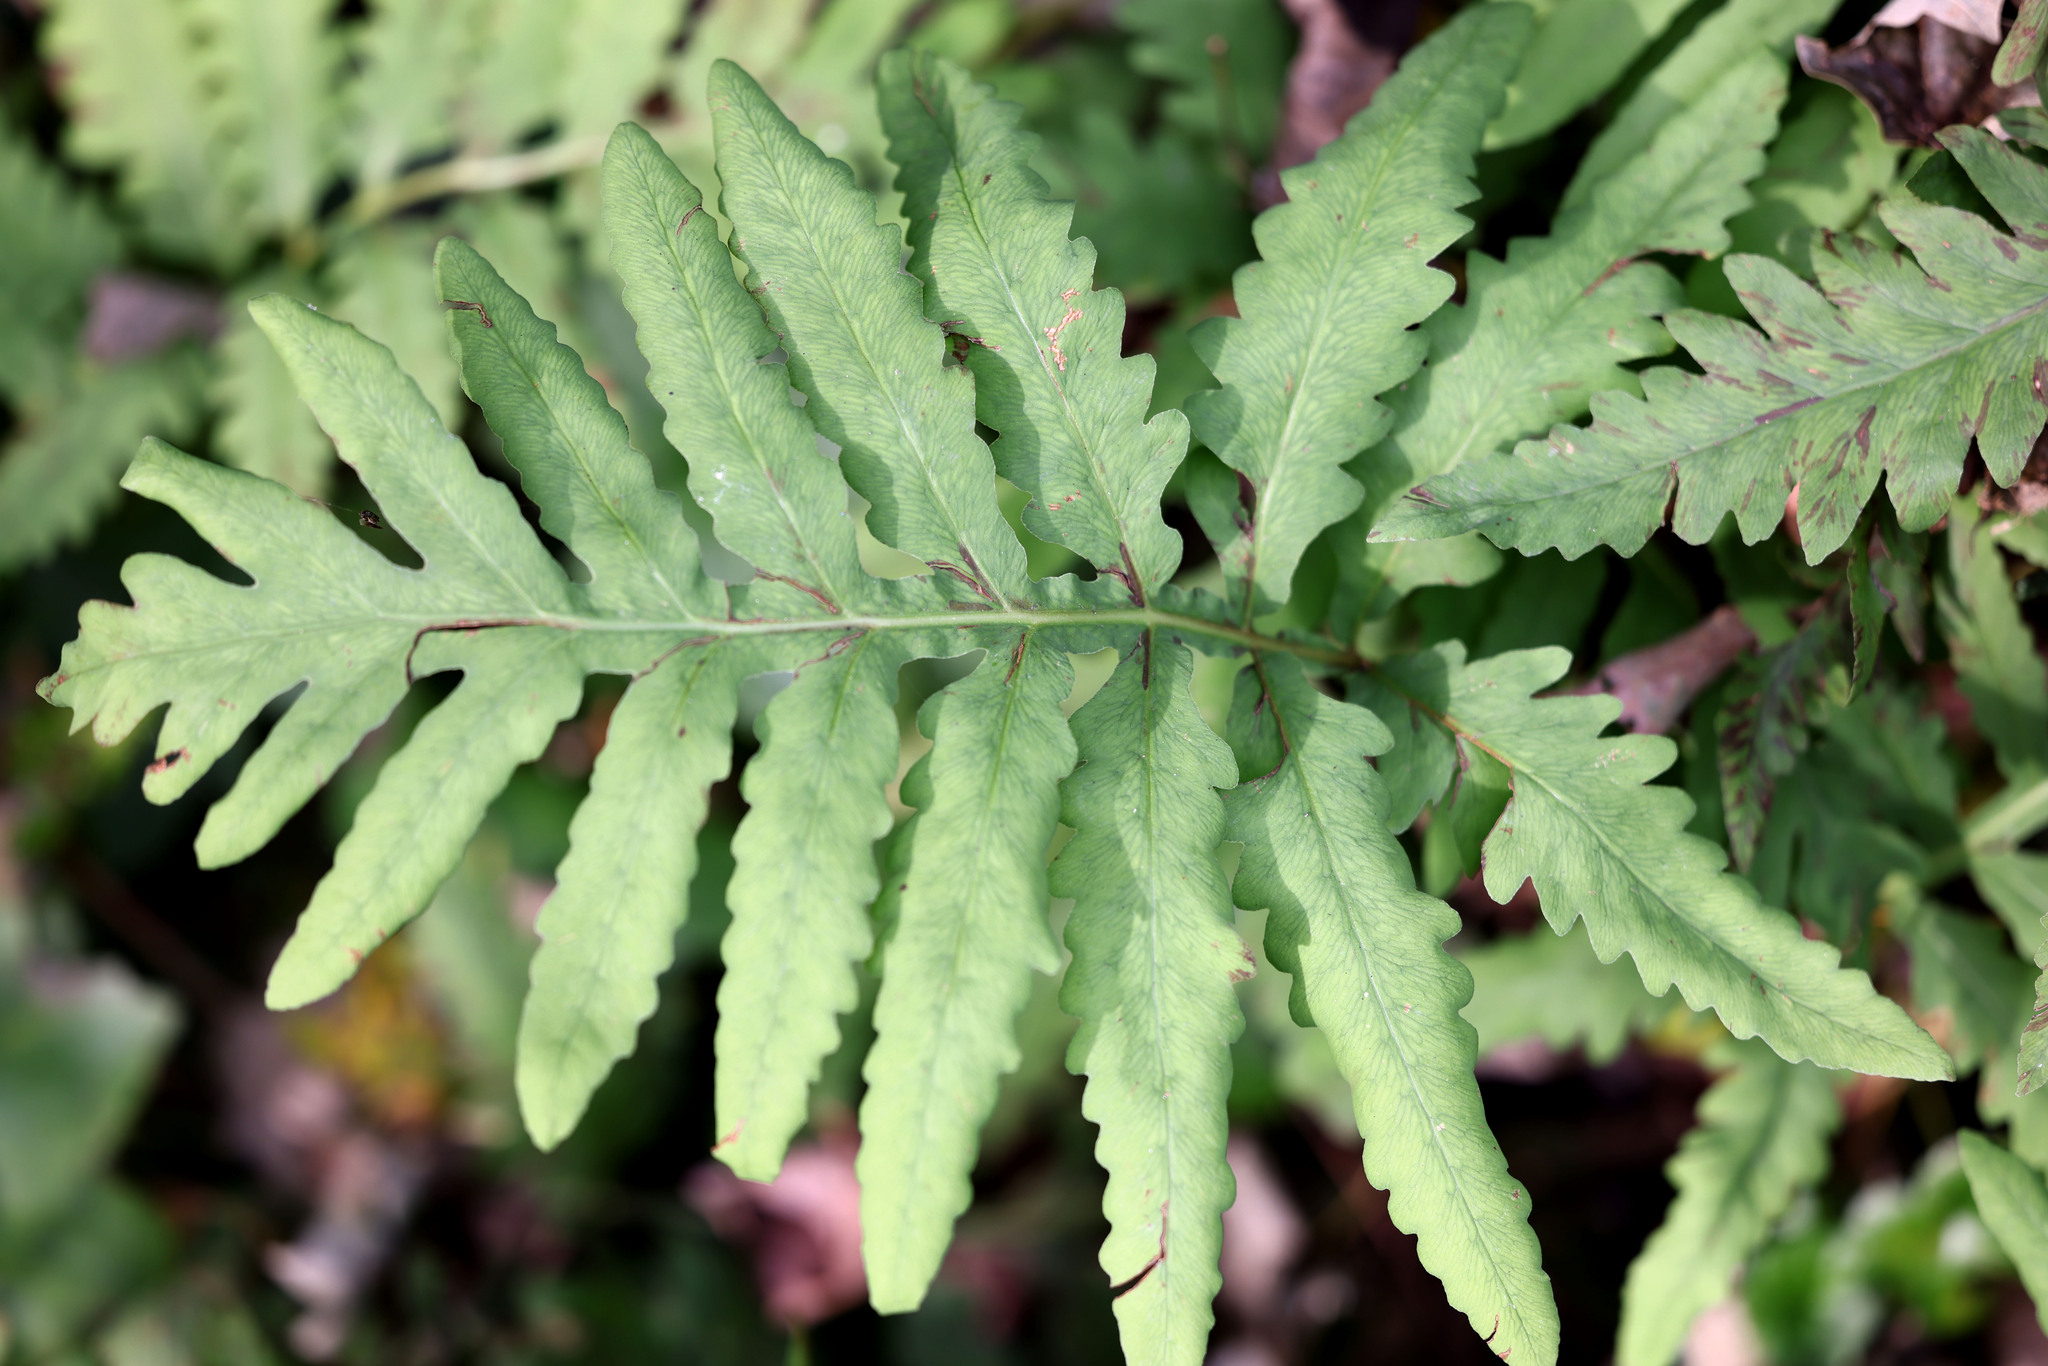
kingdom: Plantae
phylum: Tracheophyta
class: Polypodiopsida
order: Polypodiales
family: Onocleaceae
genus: Onoclea
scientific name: Onoclea sensibilis
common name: Sensitive fern
